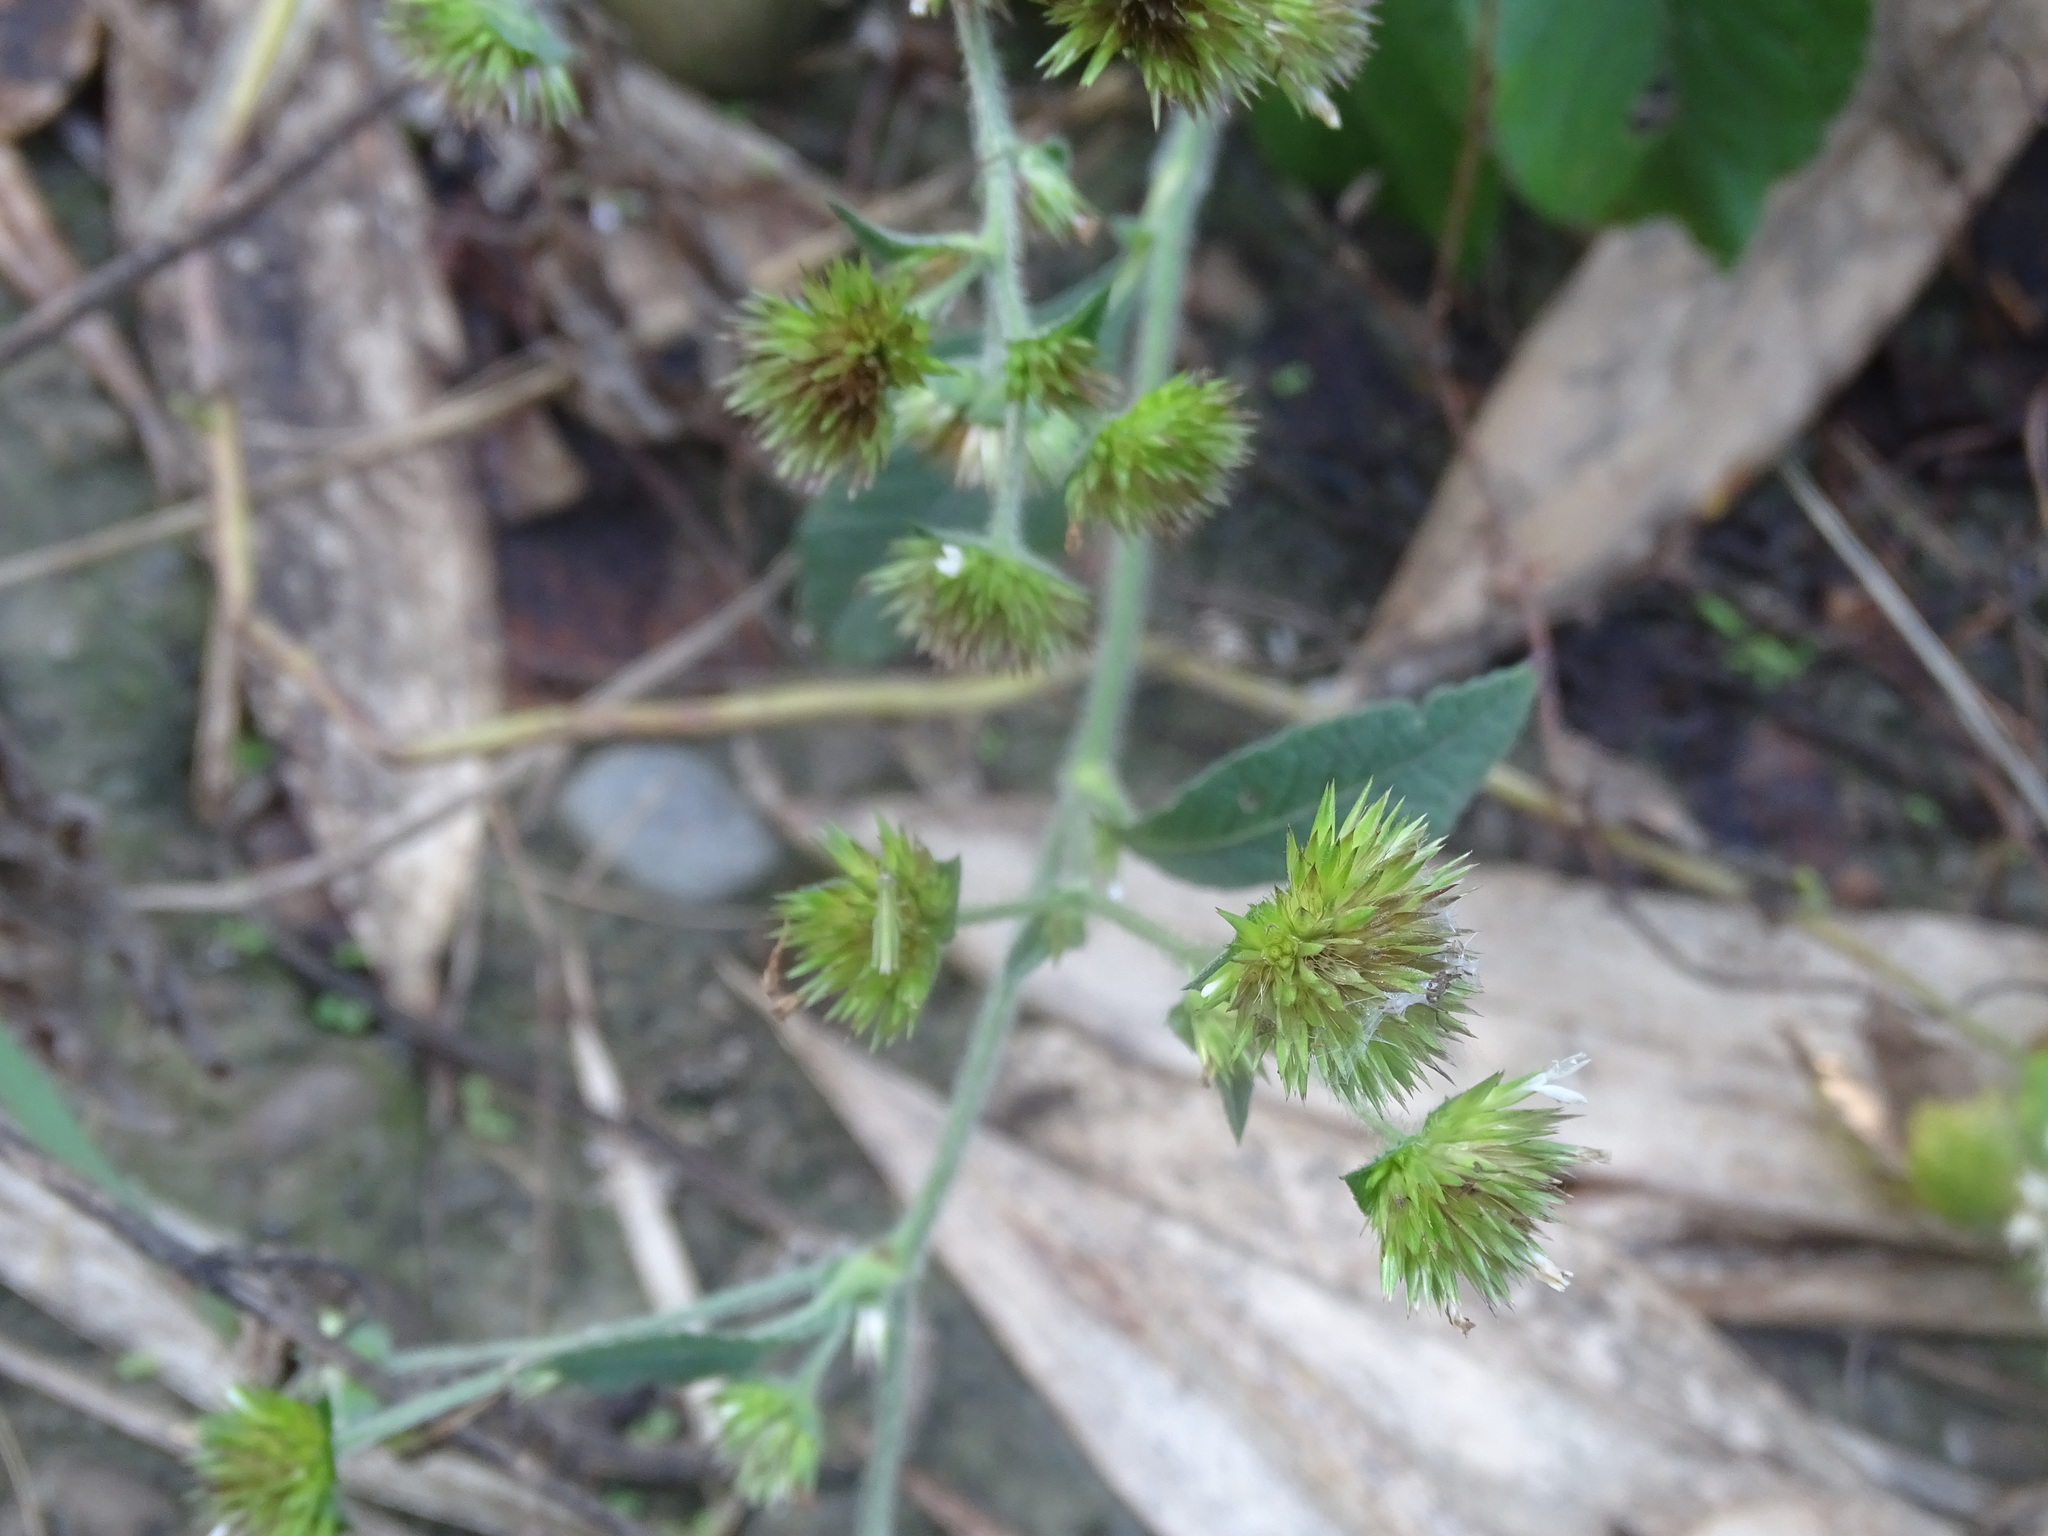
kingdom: Plantae
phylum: Tracheophyta
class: Magnoliopsida
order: Asterales
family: Asteraceae
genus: Elephantopus
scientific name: Elephantopus mollis
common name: Soft elephantsfoot
